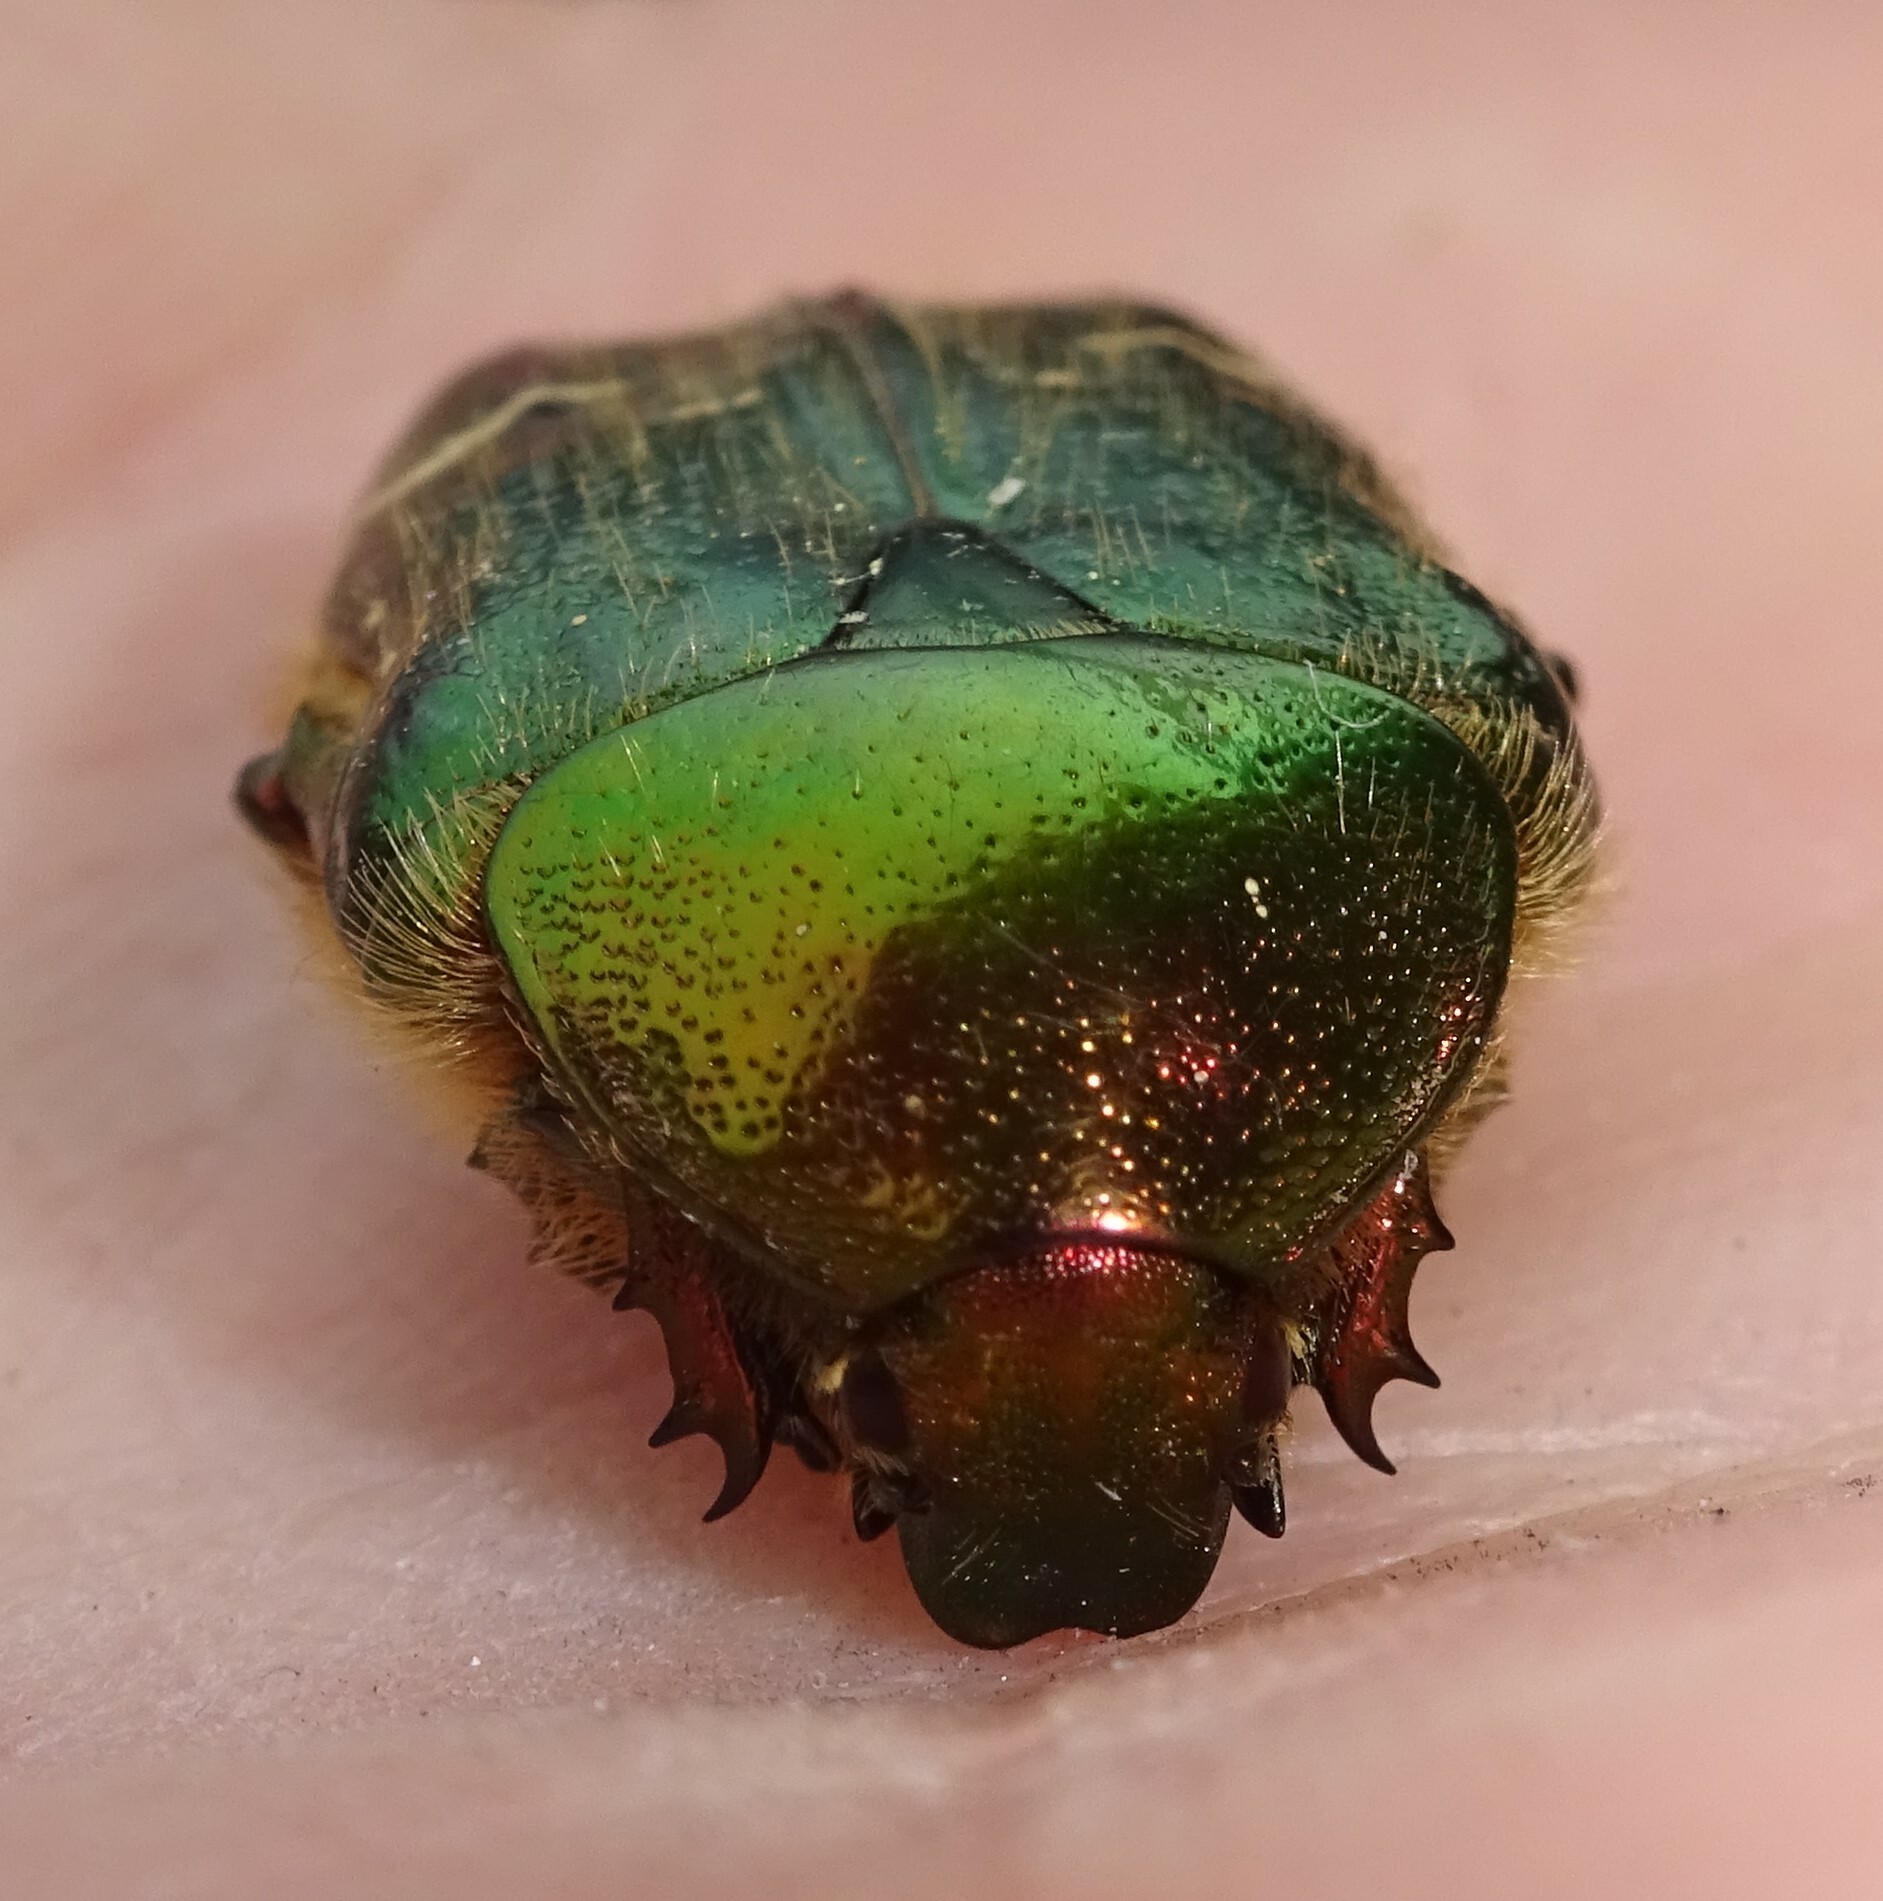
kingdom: Animalia
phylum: Arthropoda
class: Insecta
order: Coleoptera
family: Scarabaeidae
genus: Cetonia
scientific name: Cetonia aurata
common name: Rose chafer
